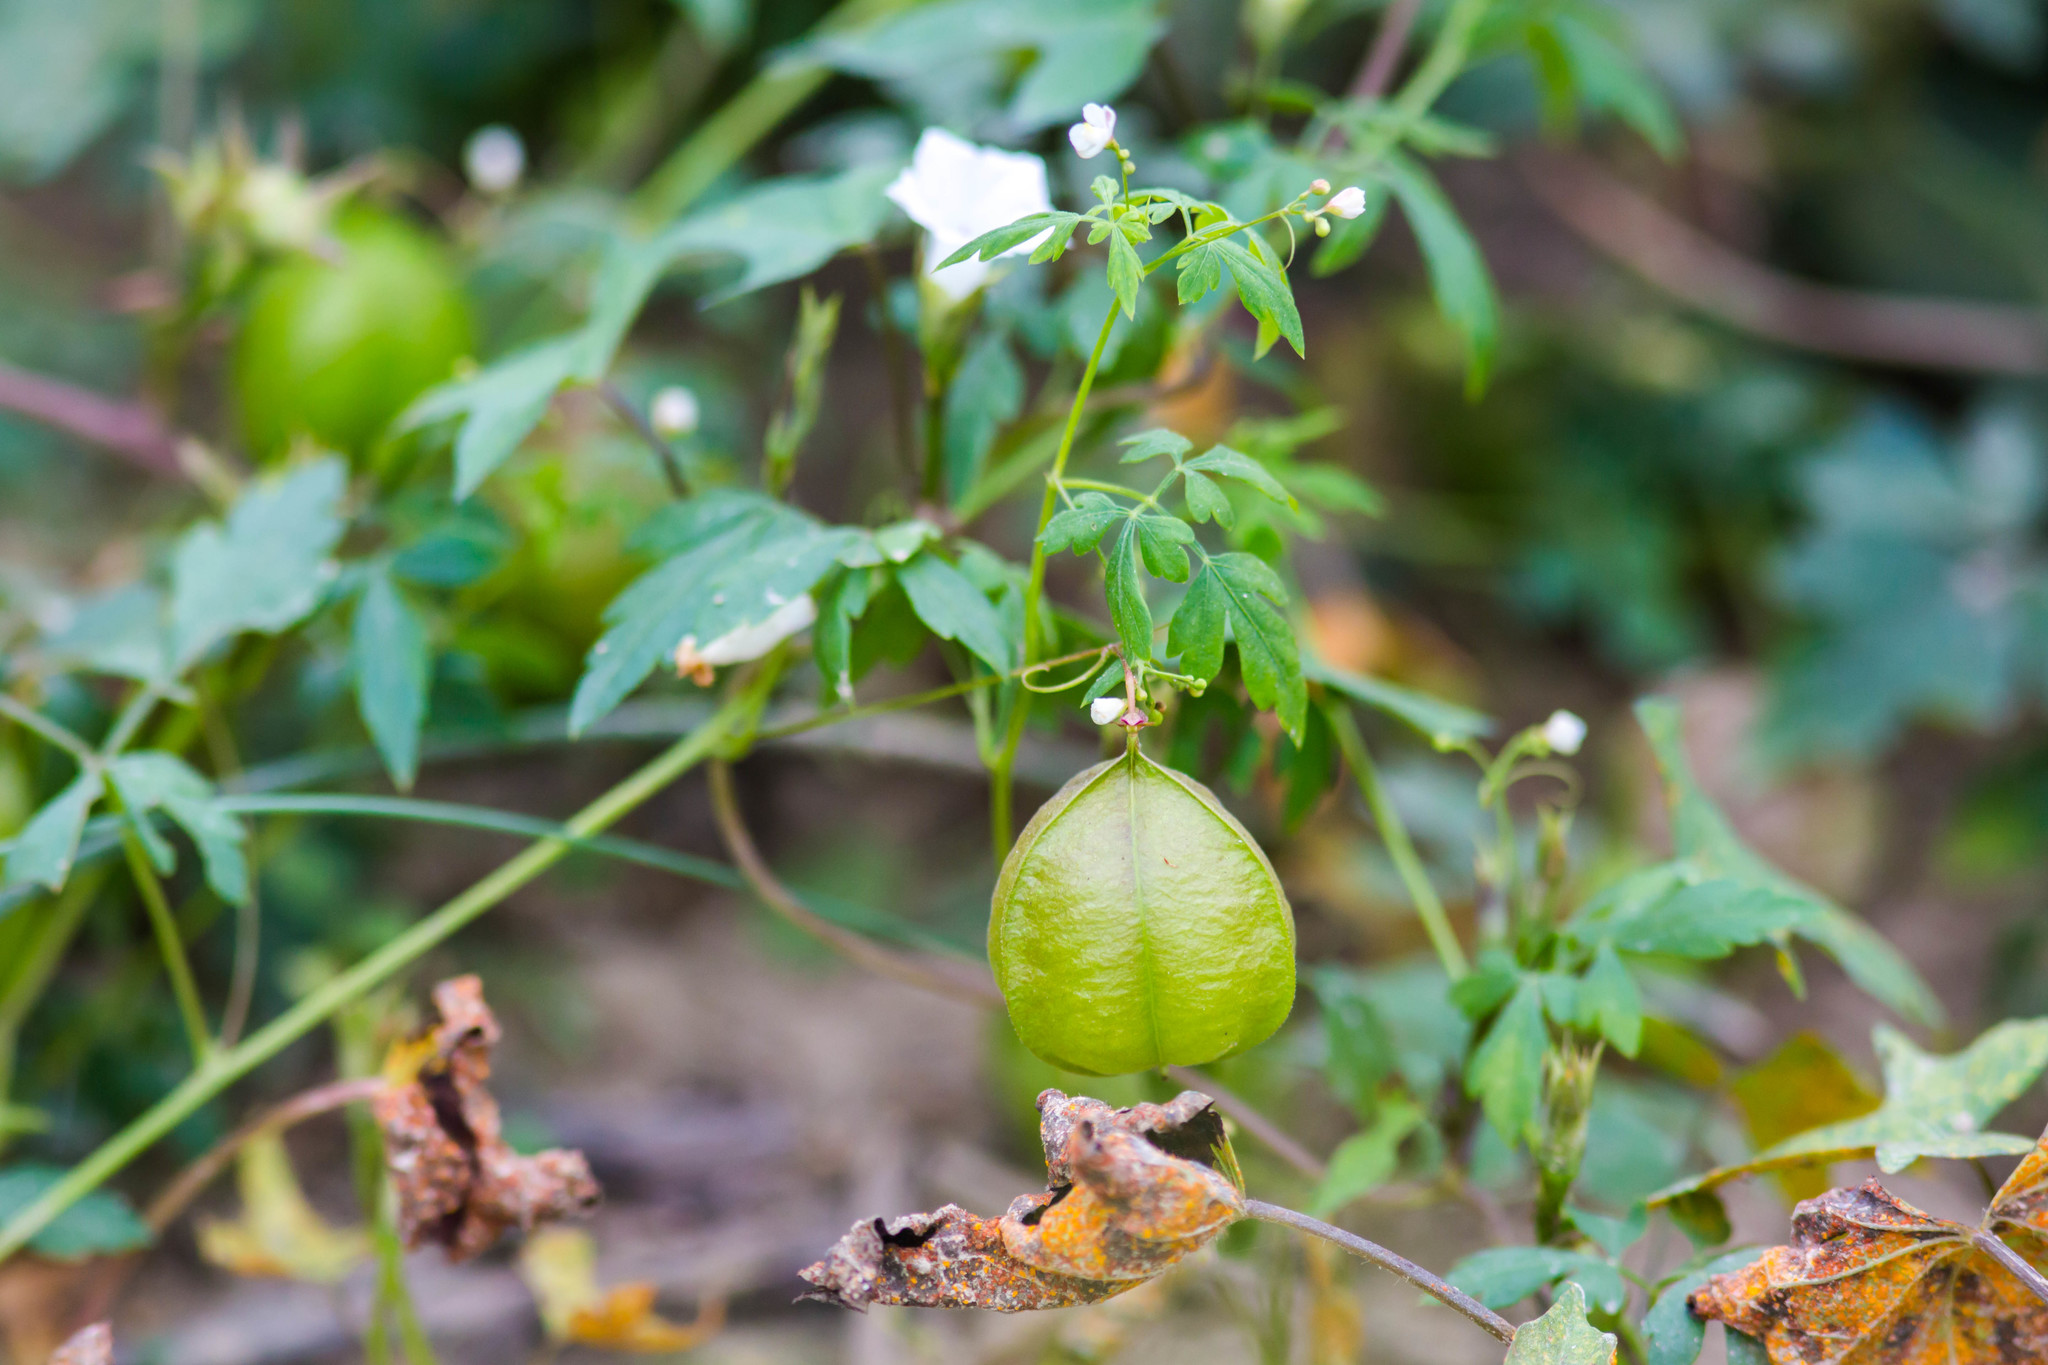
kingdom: Plantae
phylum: Tracheophyta
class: Magnoliopsida
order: Sapindales
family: Sapindaceae
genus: Cardiospermum
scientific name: Cardiospermum halicacabum
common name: Balloon vine
